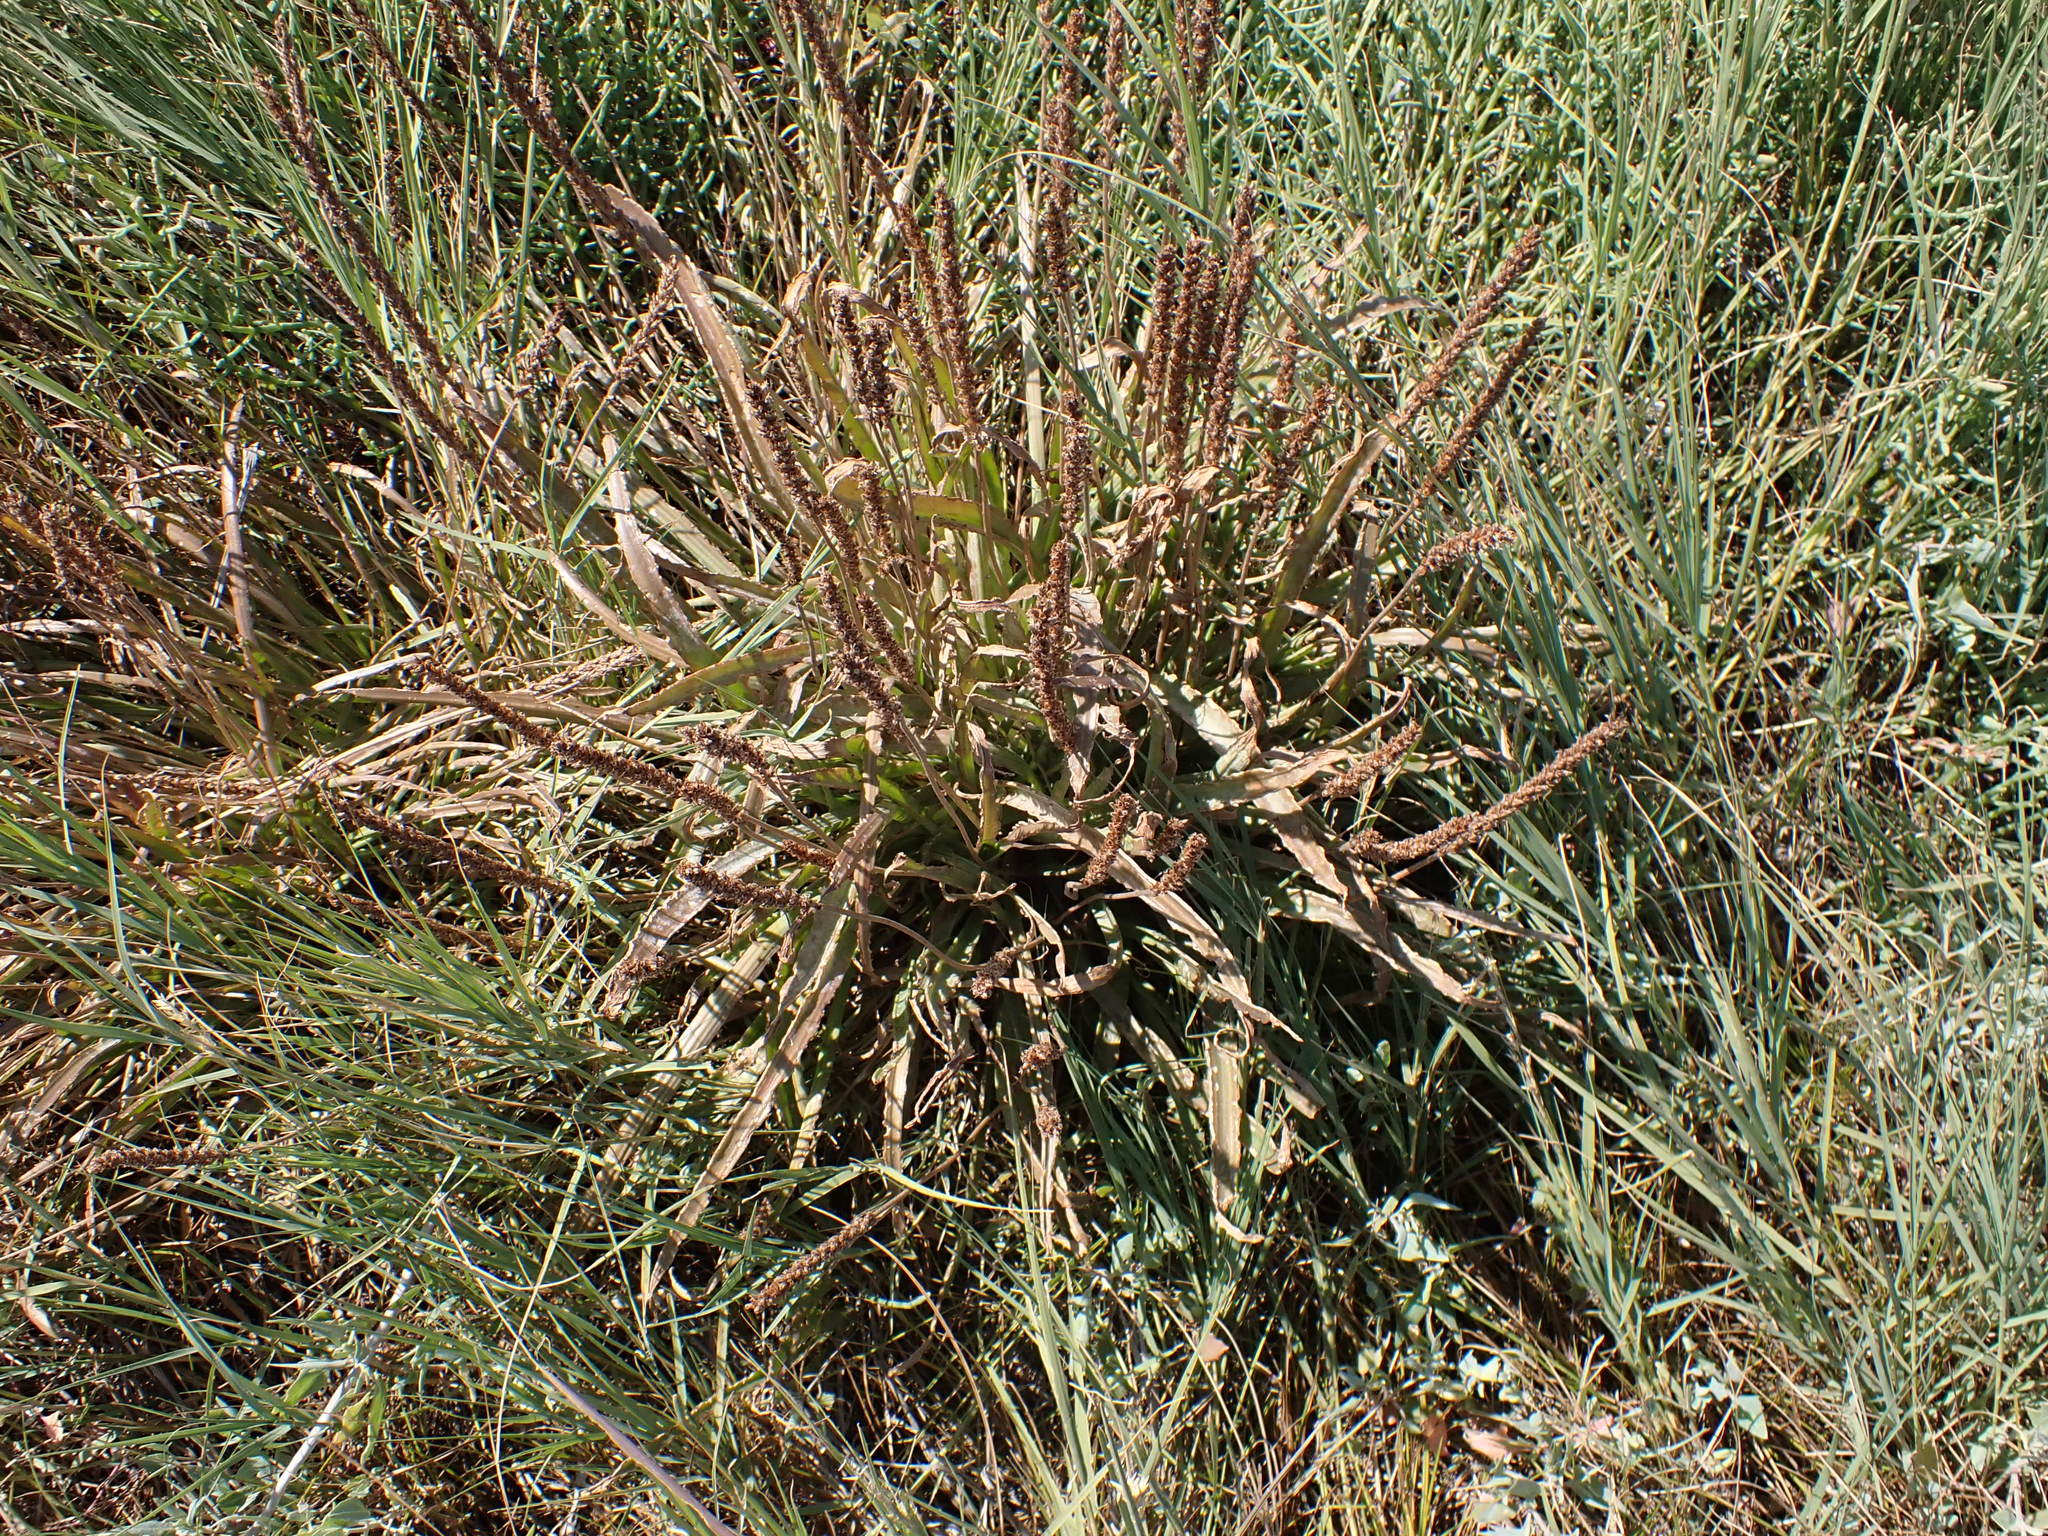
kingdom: Plantae
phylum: Tracheophyta
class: Magnoliopsida
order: Lamiales
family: Plantaginaceae
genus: Plantago
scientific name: Plantago maritima
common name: Sea plantain
